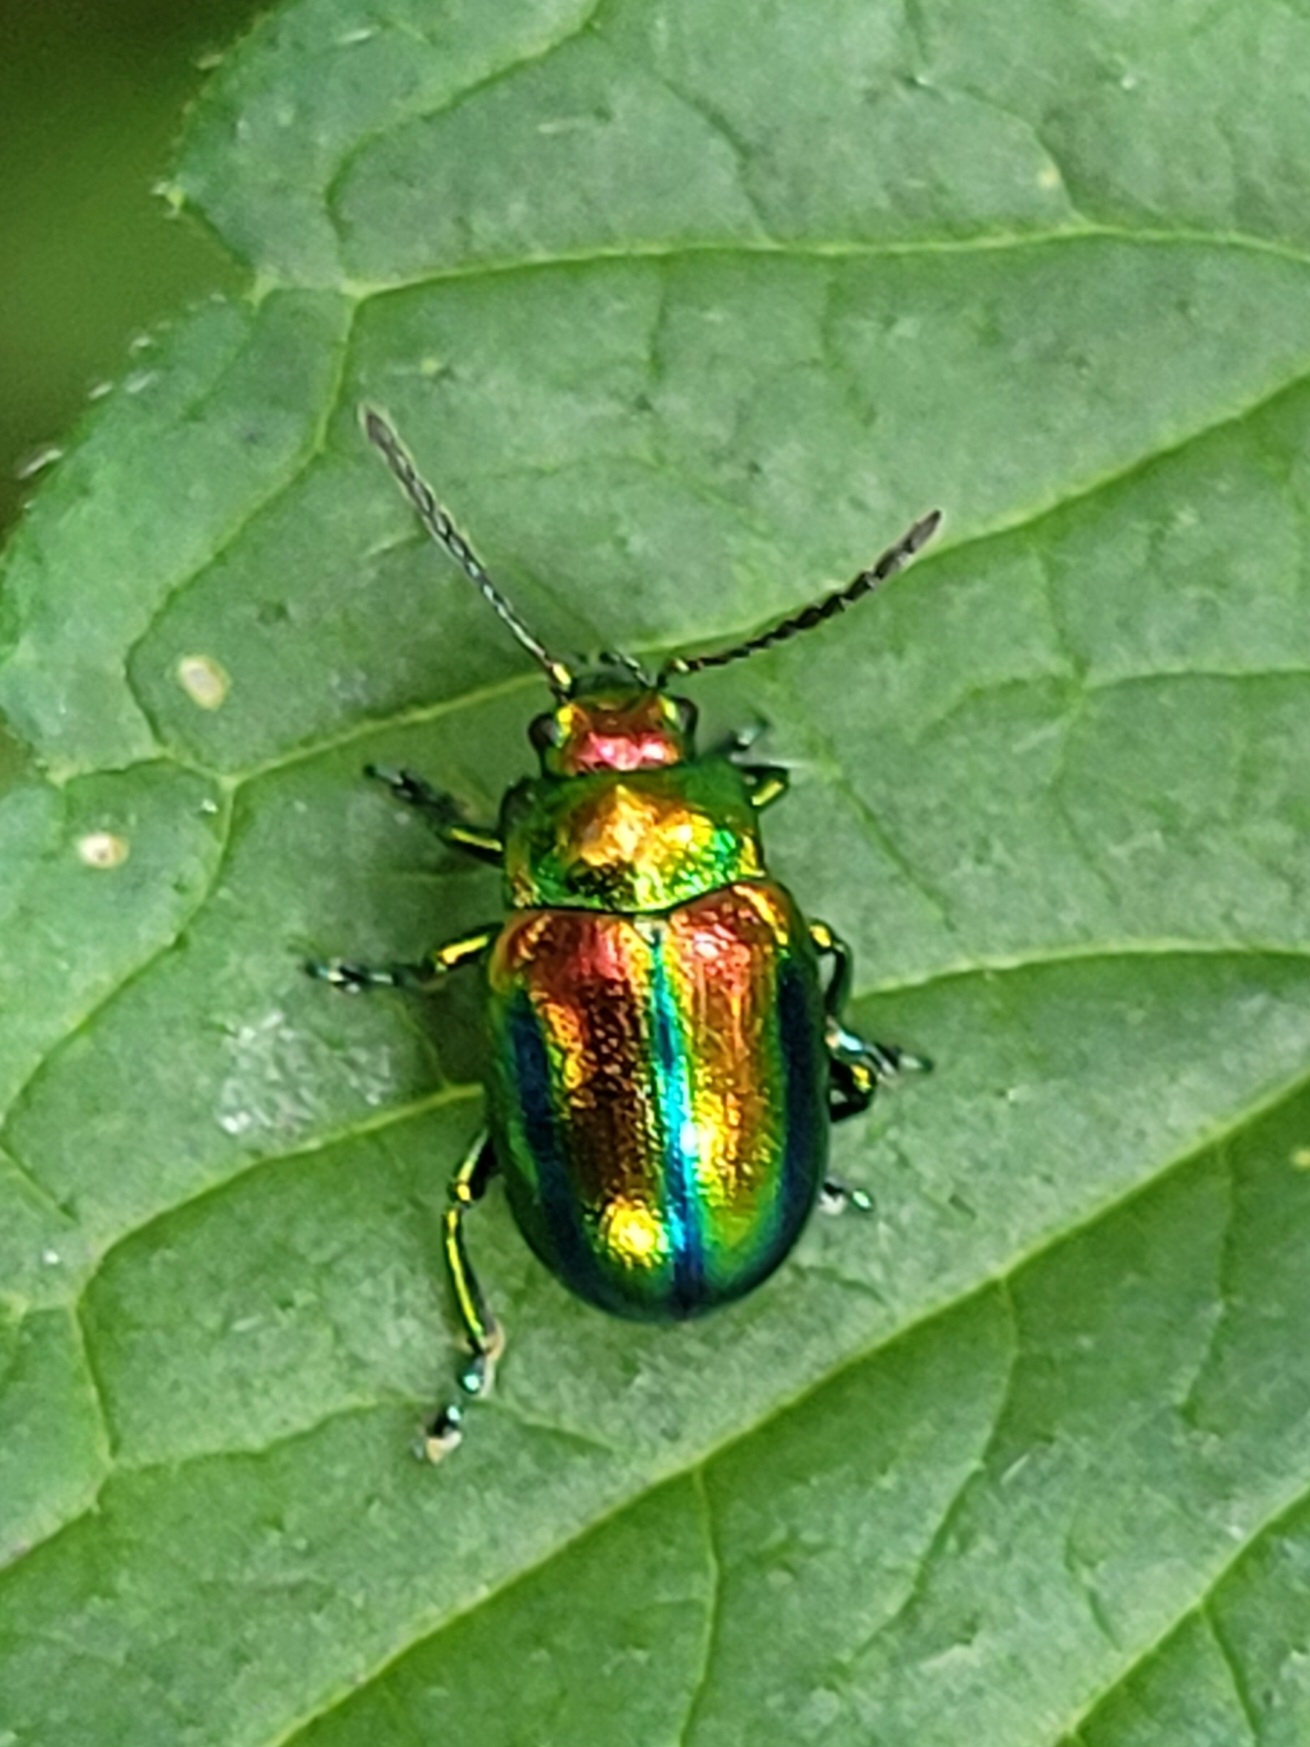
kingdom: Animalia
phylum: Arthropoda
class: Insecta
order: Coleoptera
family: Chrysomelidae
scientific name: Chrysomelidae
